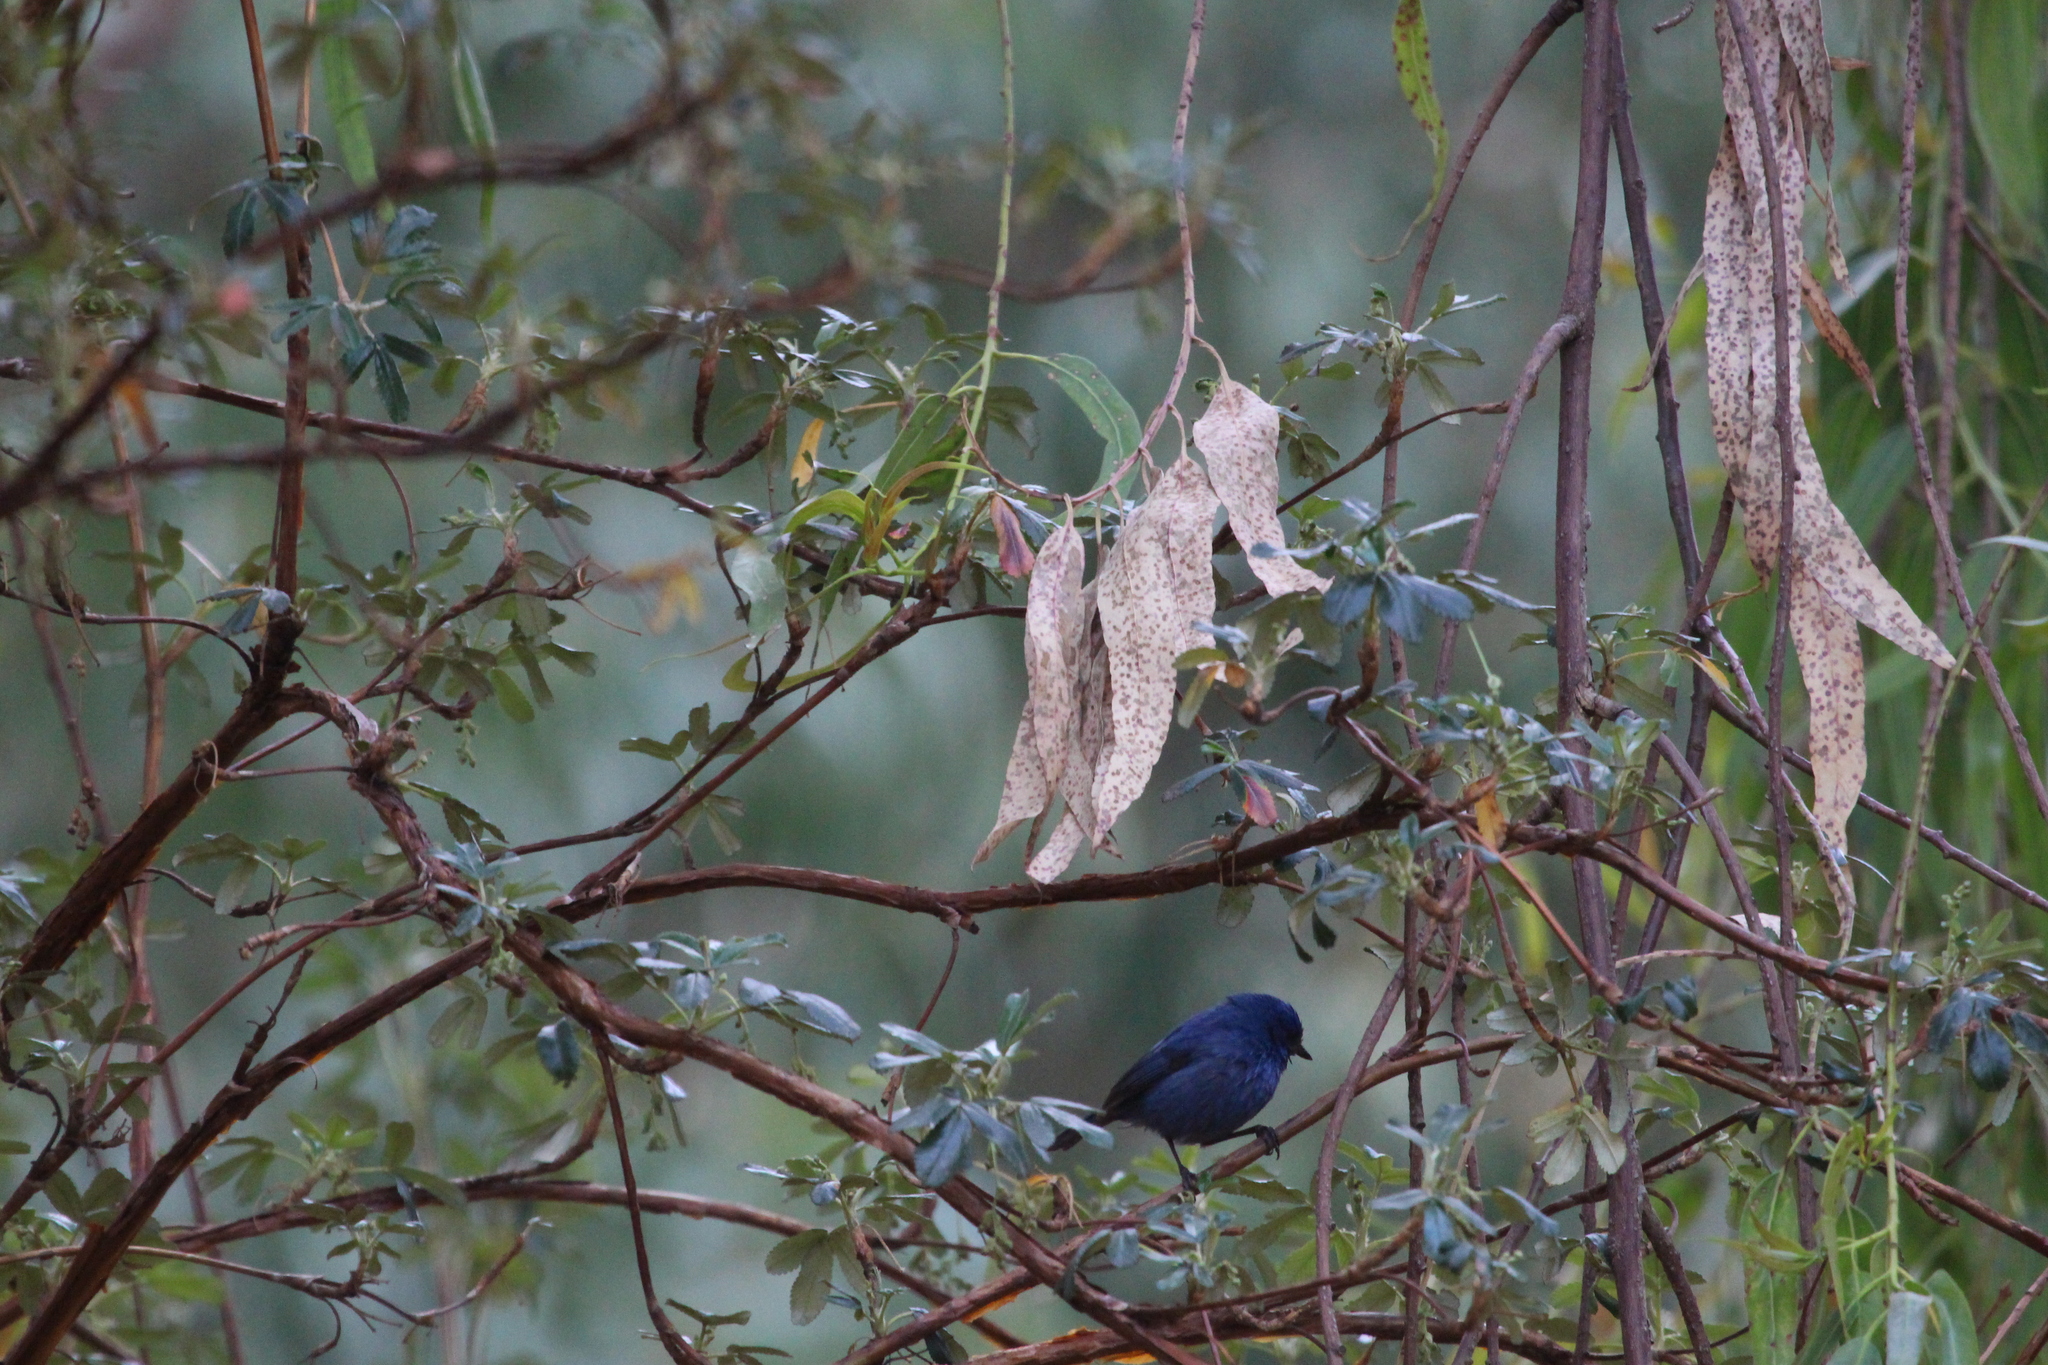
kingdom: Animalia
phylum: Chordata
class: Aves
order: Passeriformes
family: Thraupidae
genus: Xenodacnis
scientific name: Xenodacnis parina
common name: Tit-like dacnis
